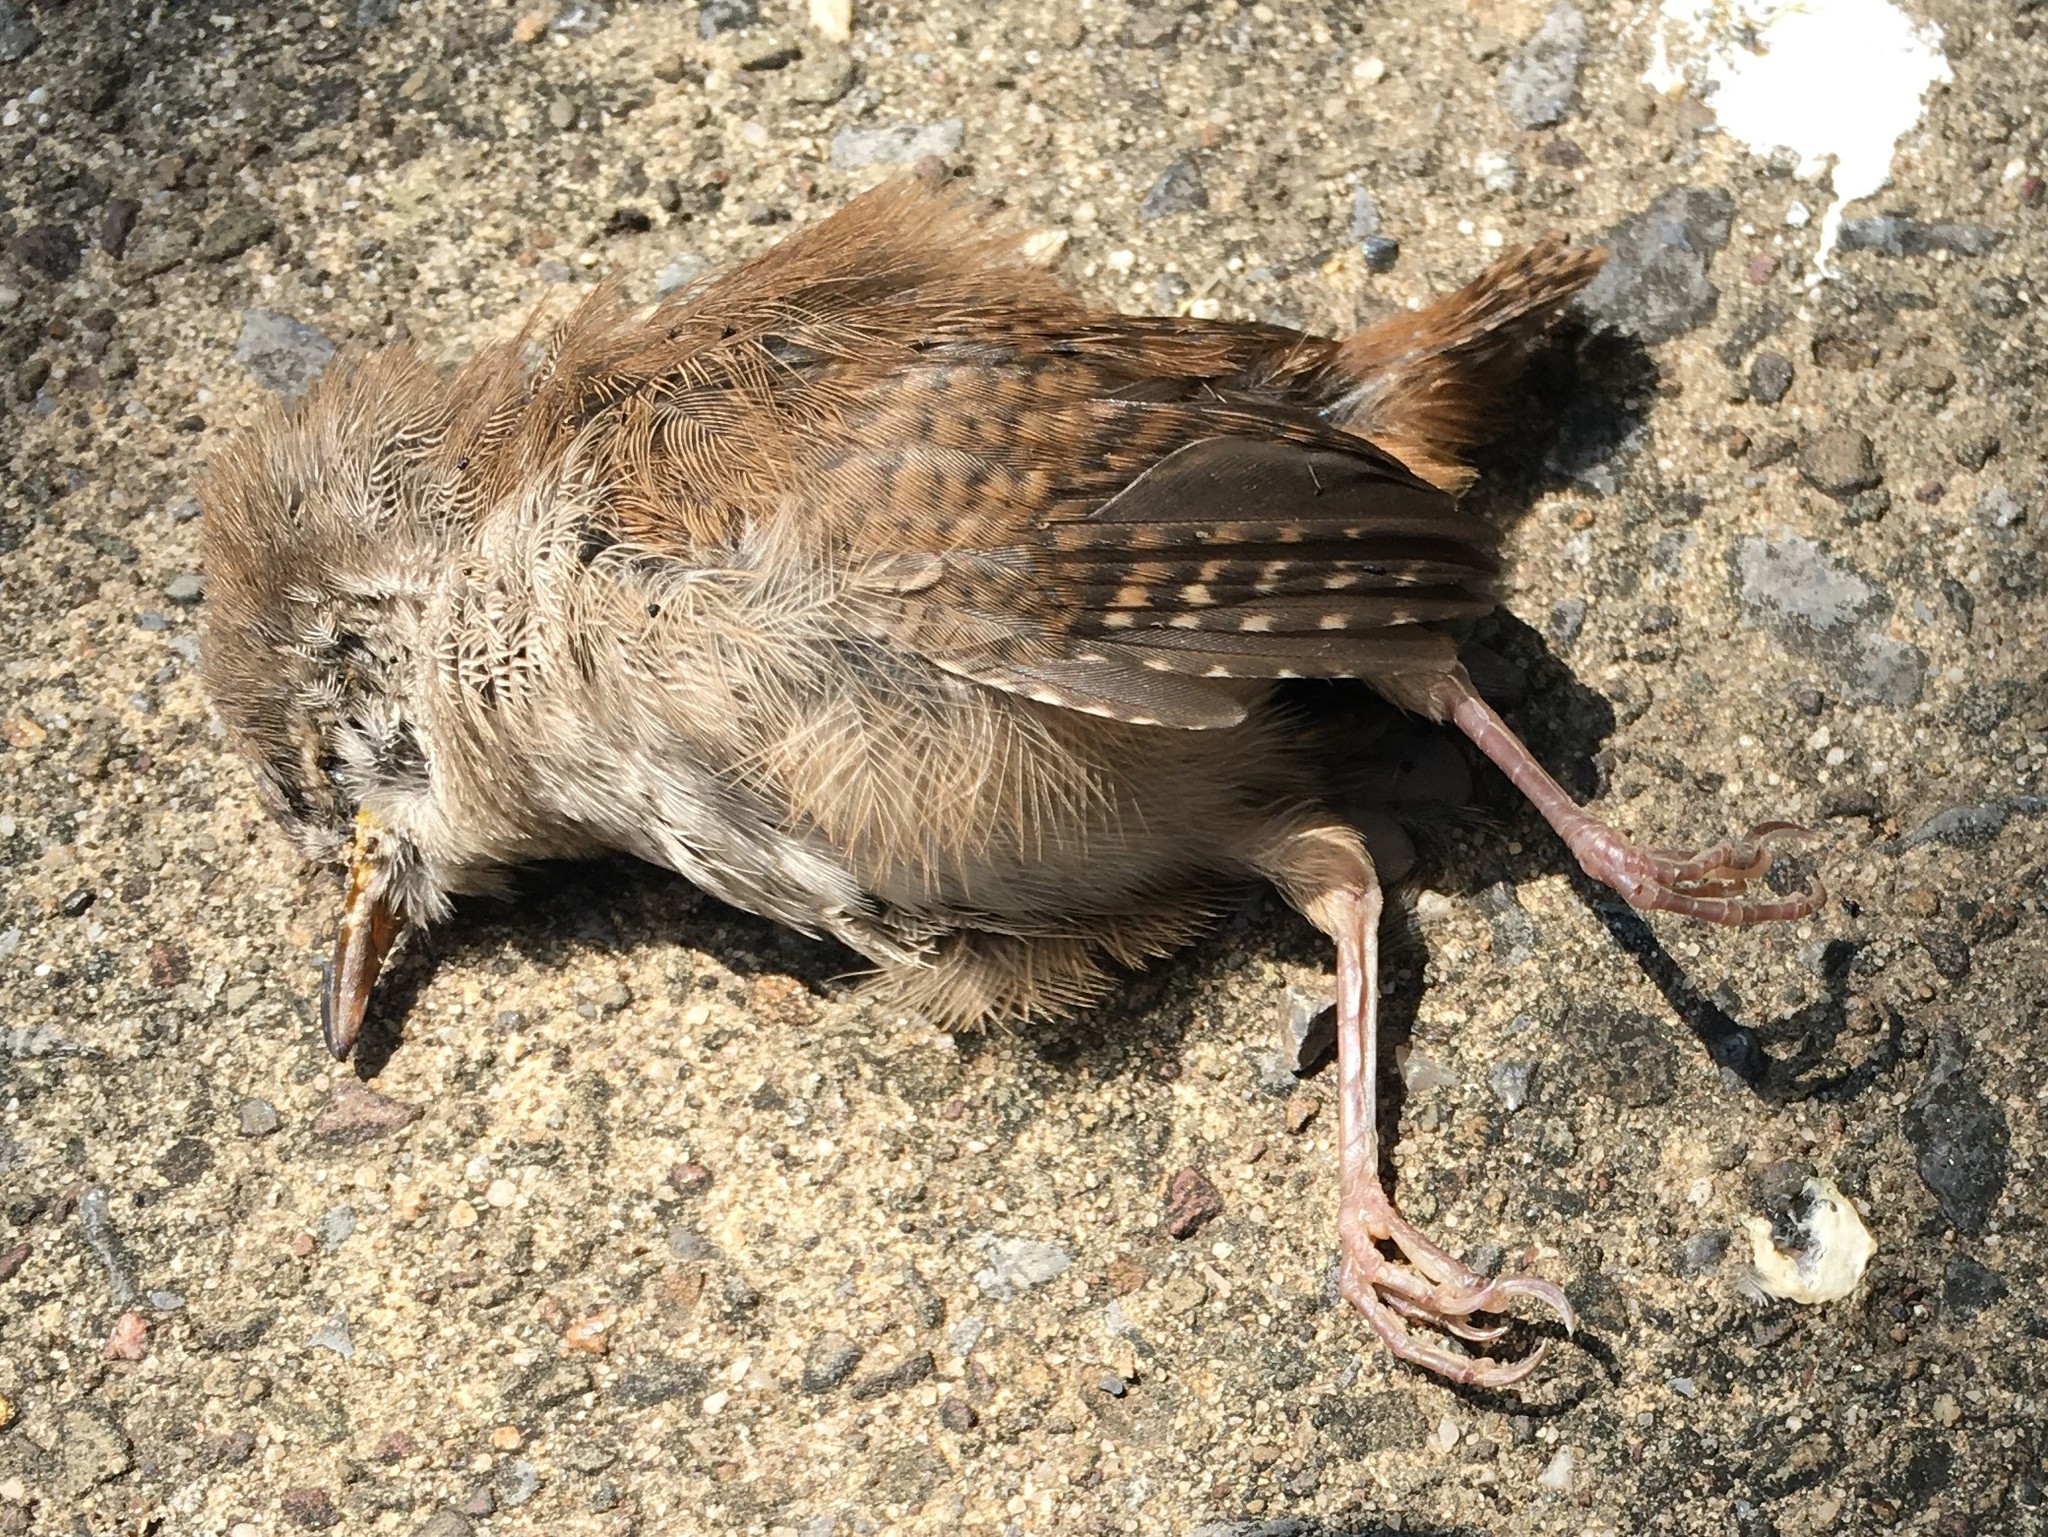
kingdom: Animalia
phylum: Chordata
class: Aves
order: Passeriformes
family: Troglodytidae
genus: Troglodytes
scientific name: Troglodytes aedon
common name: House wren
